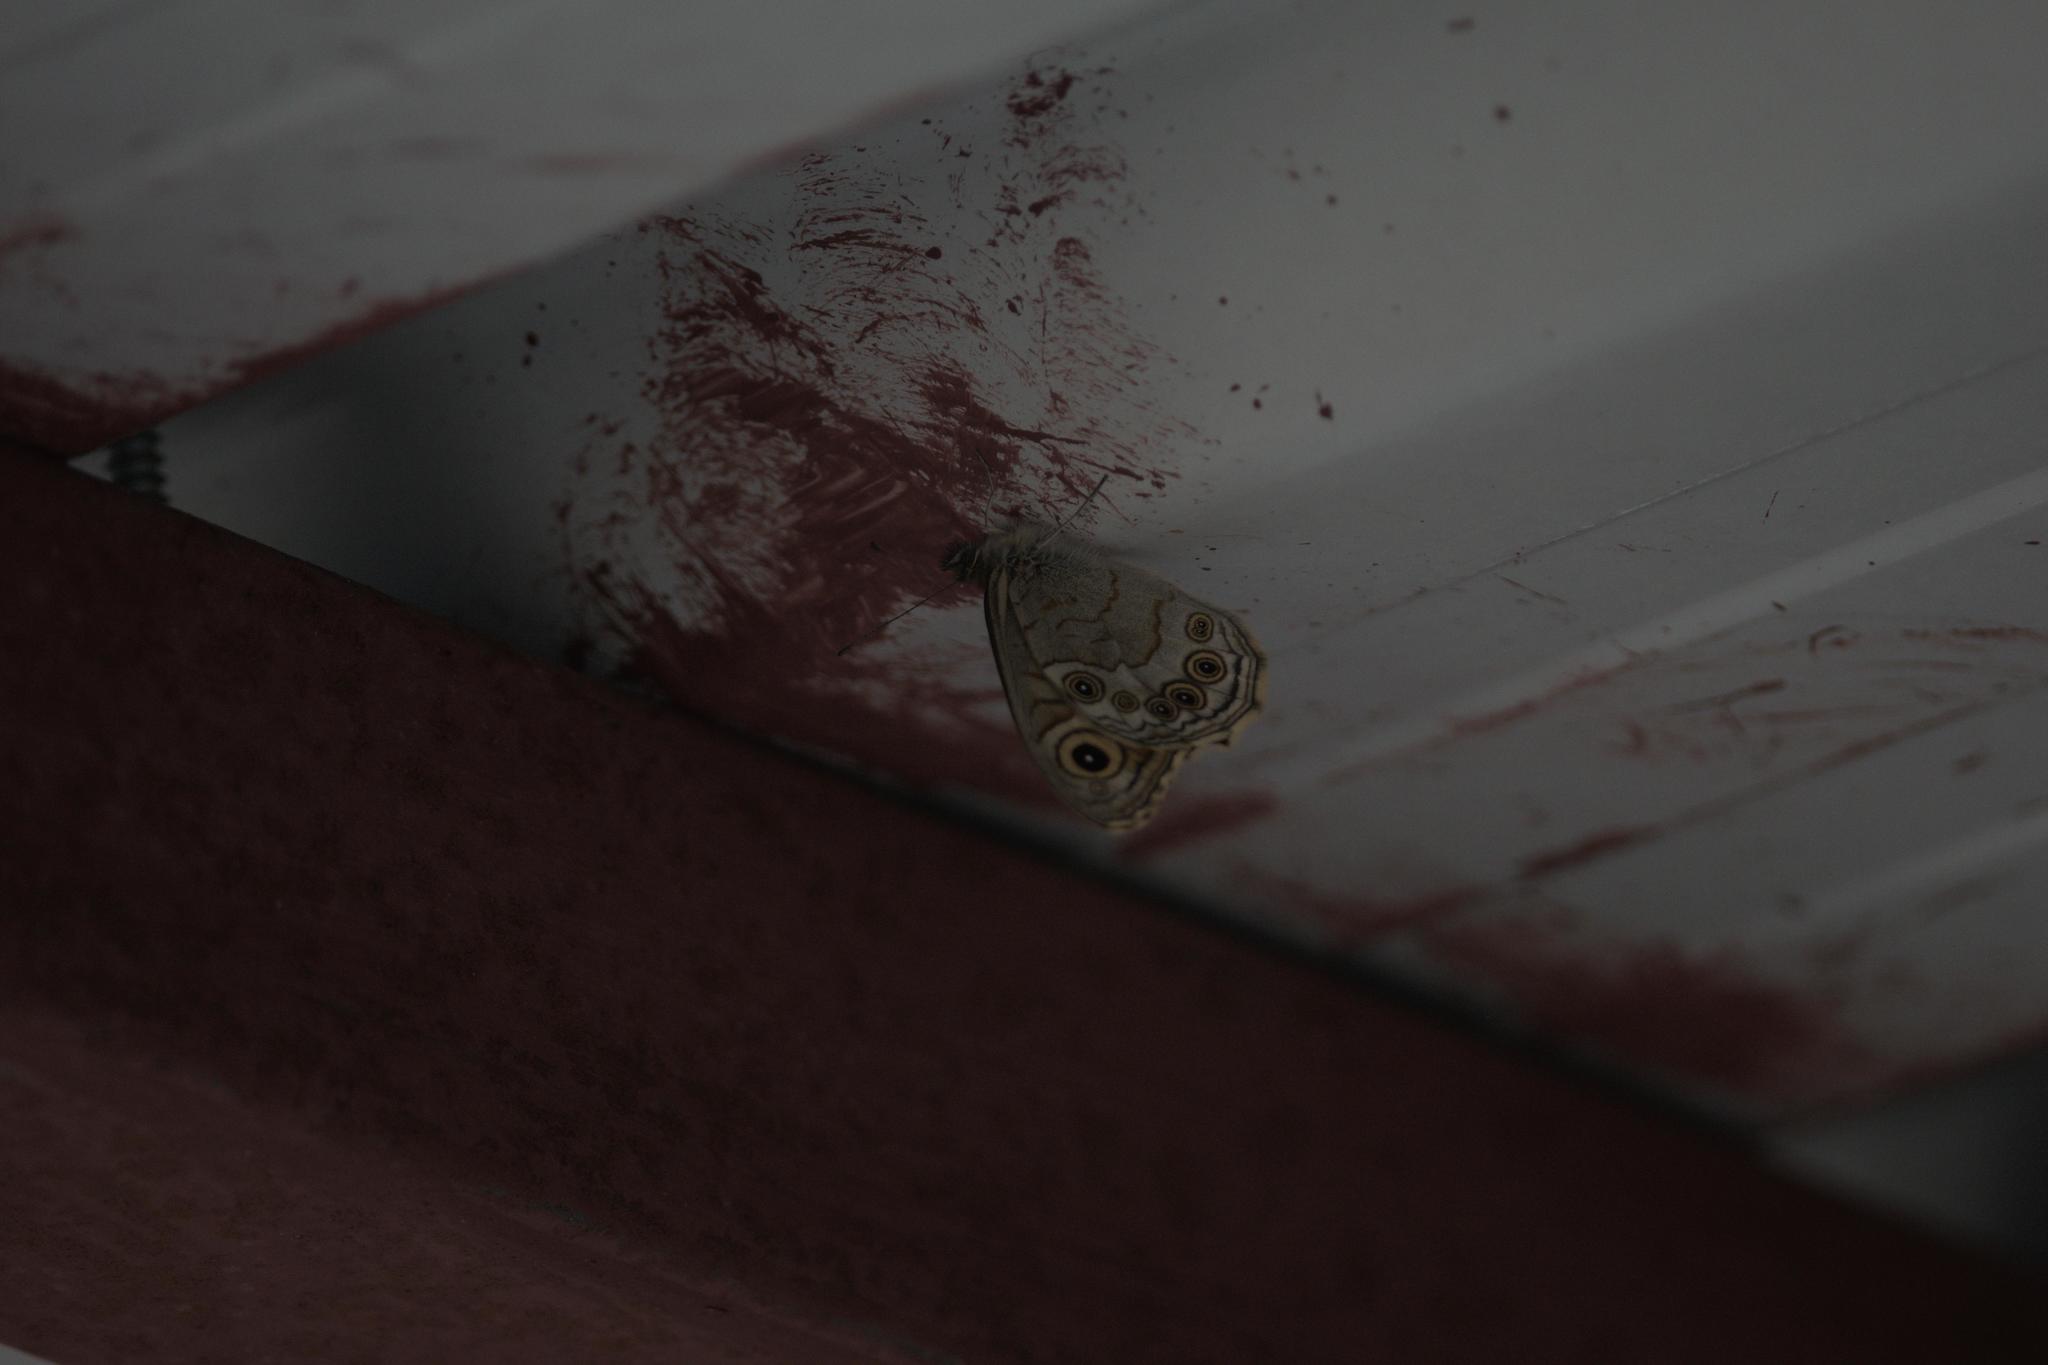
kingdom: Animalia
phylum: Arthropoda
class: Insecta
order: Lepidoptera
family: Nymphalidae
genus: Pararge
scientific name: Pararge Lasiommata schakra
